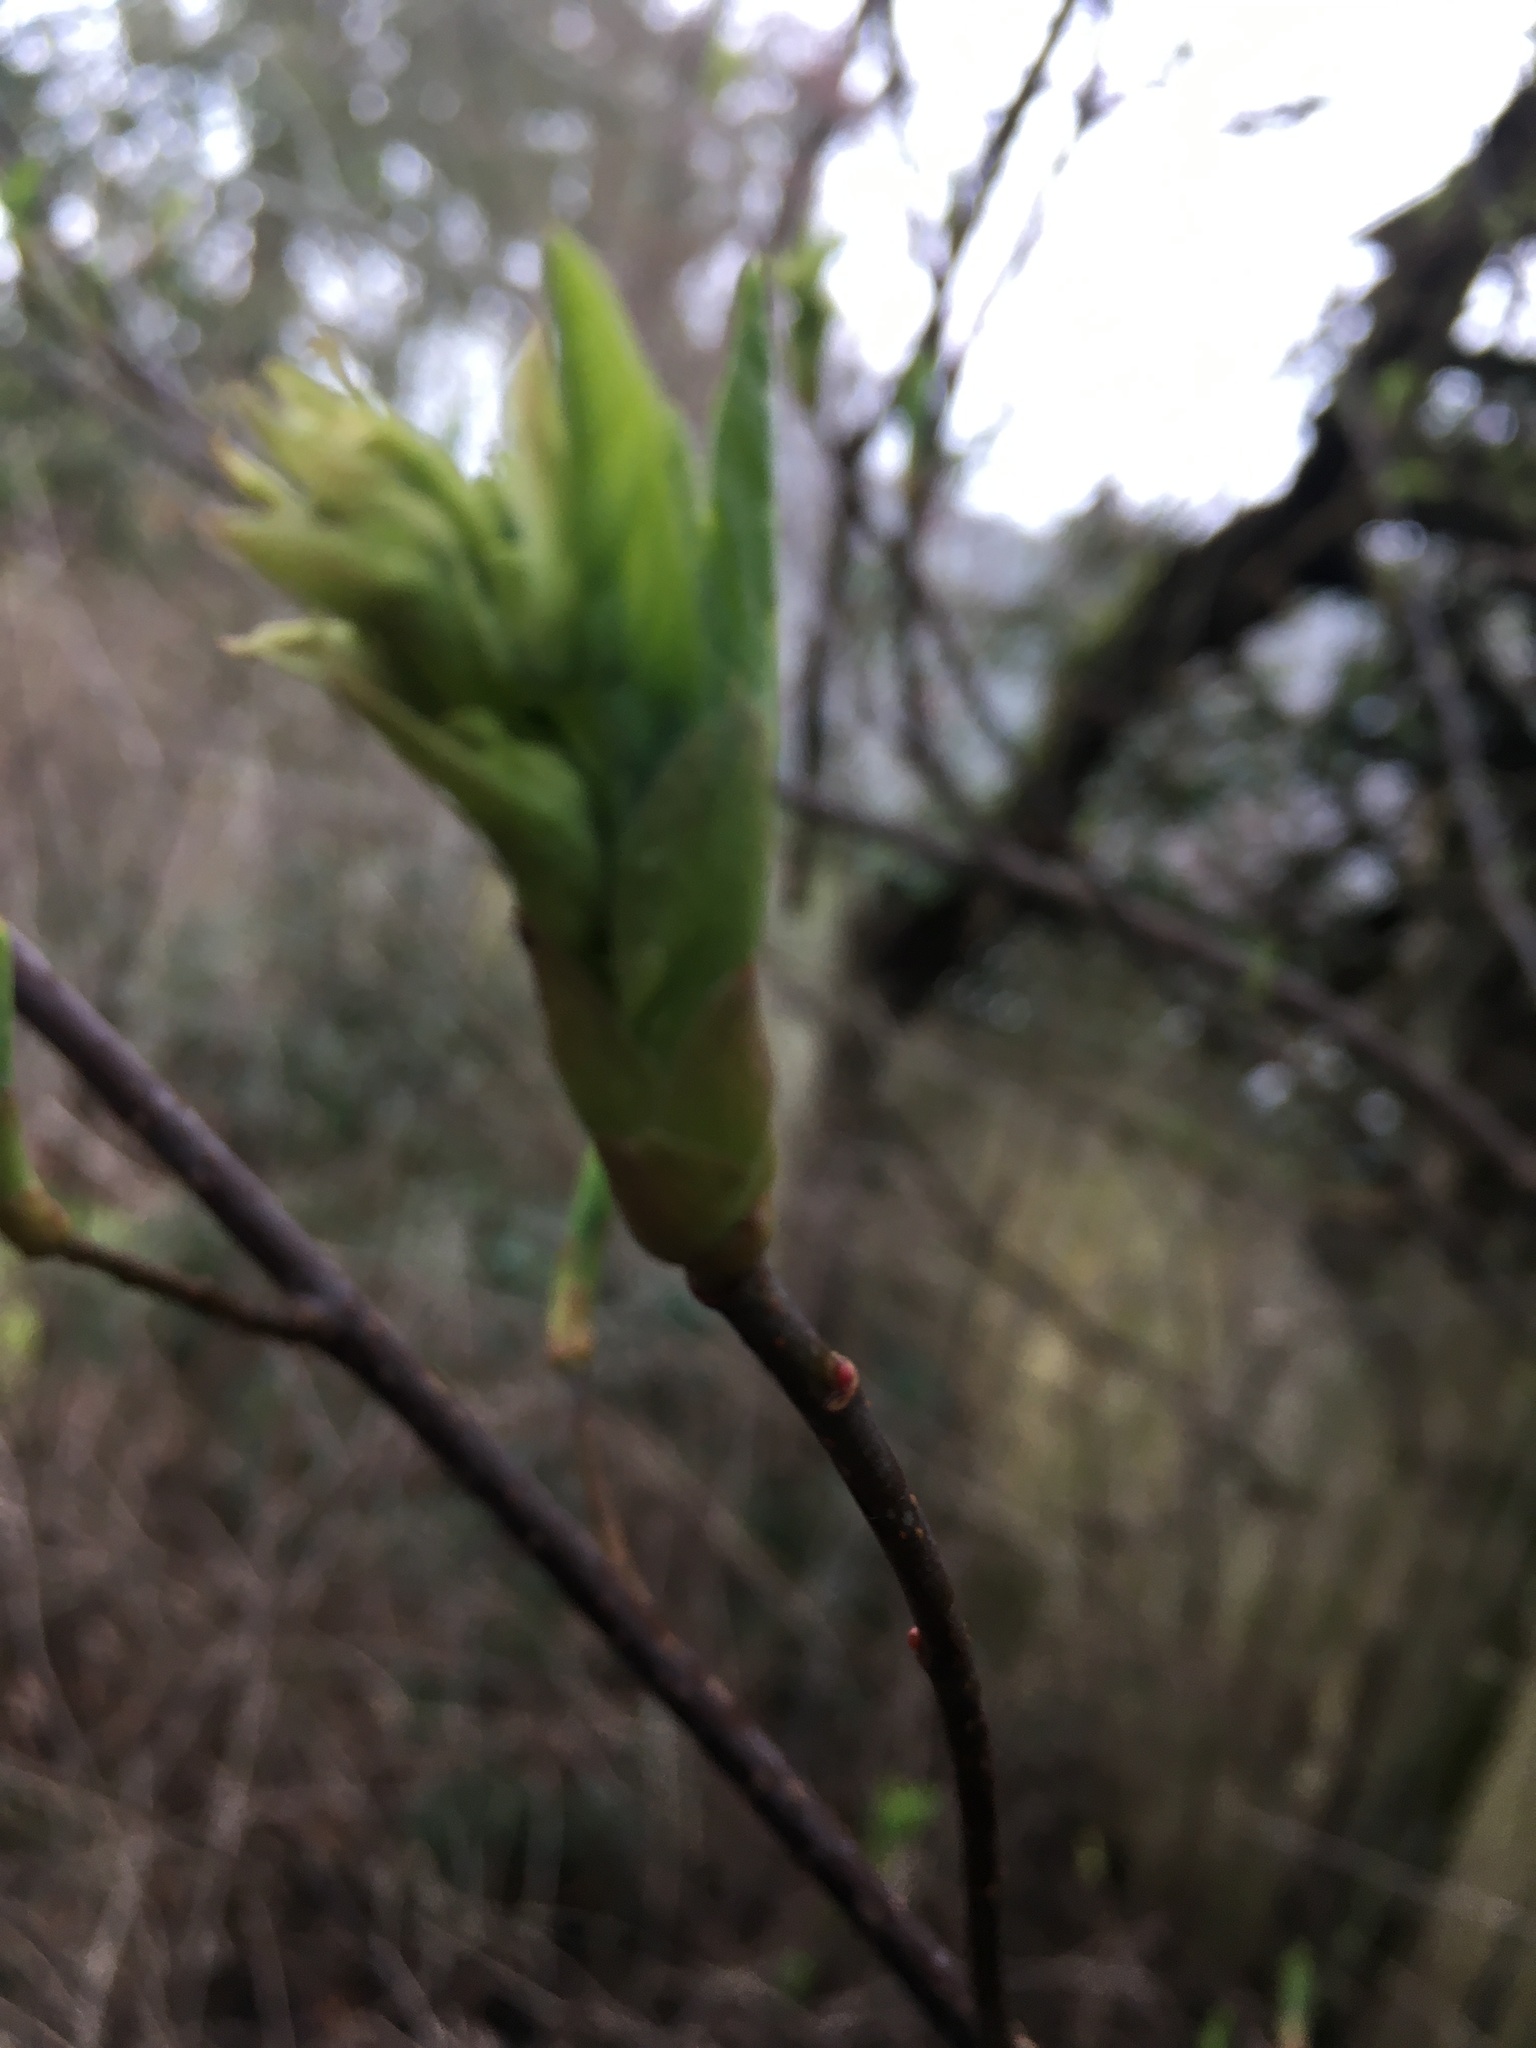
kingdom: Plantae
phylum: Tracheophyta
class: Magnoliopsida
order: Rosales
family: Rosaceae
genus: Oemleria
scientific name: Oemleria cerasiformis
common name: Osoberry
